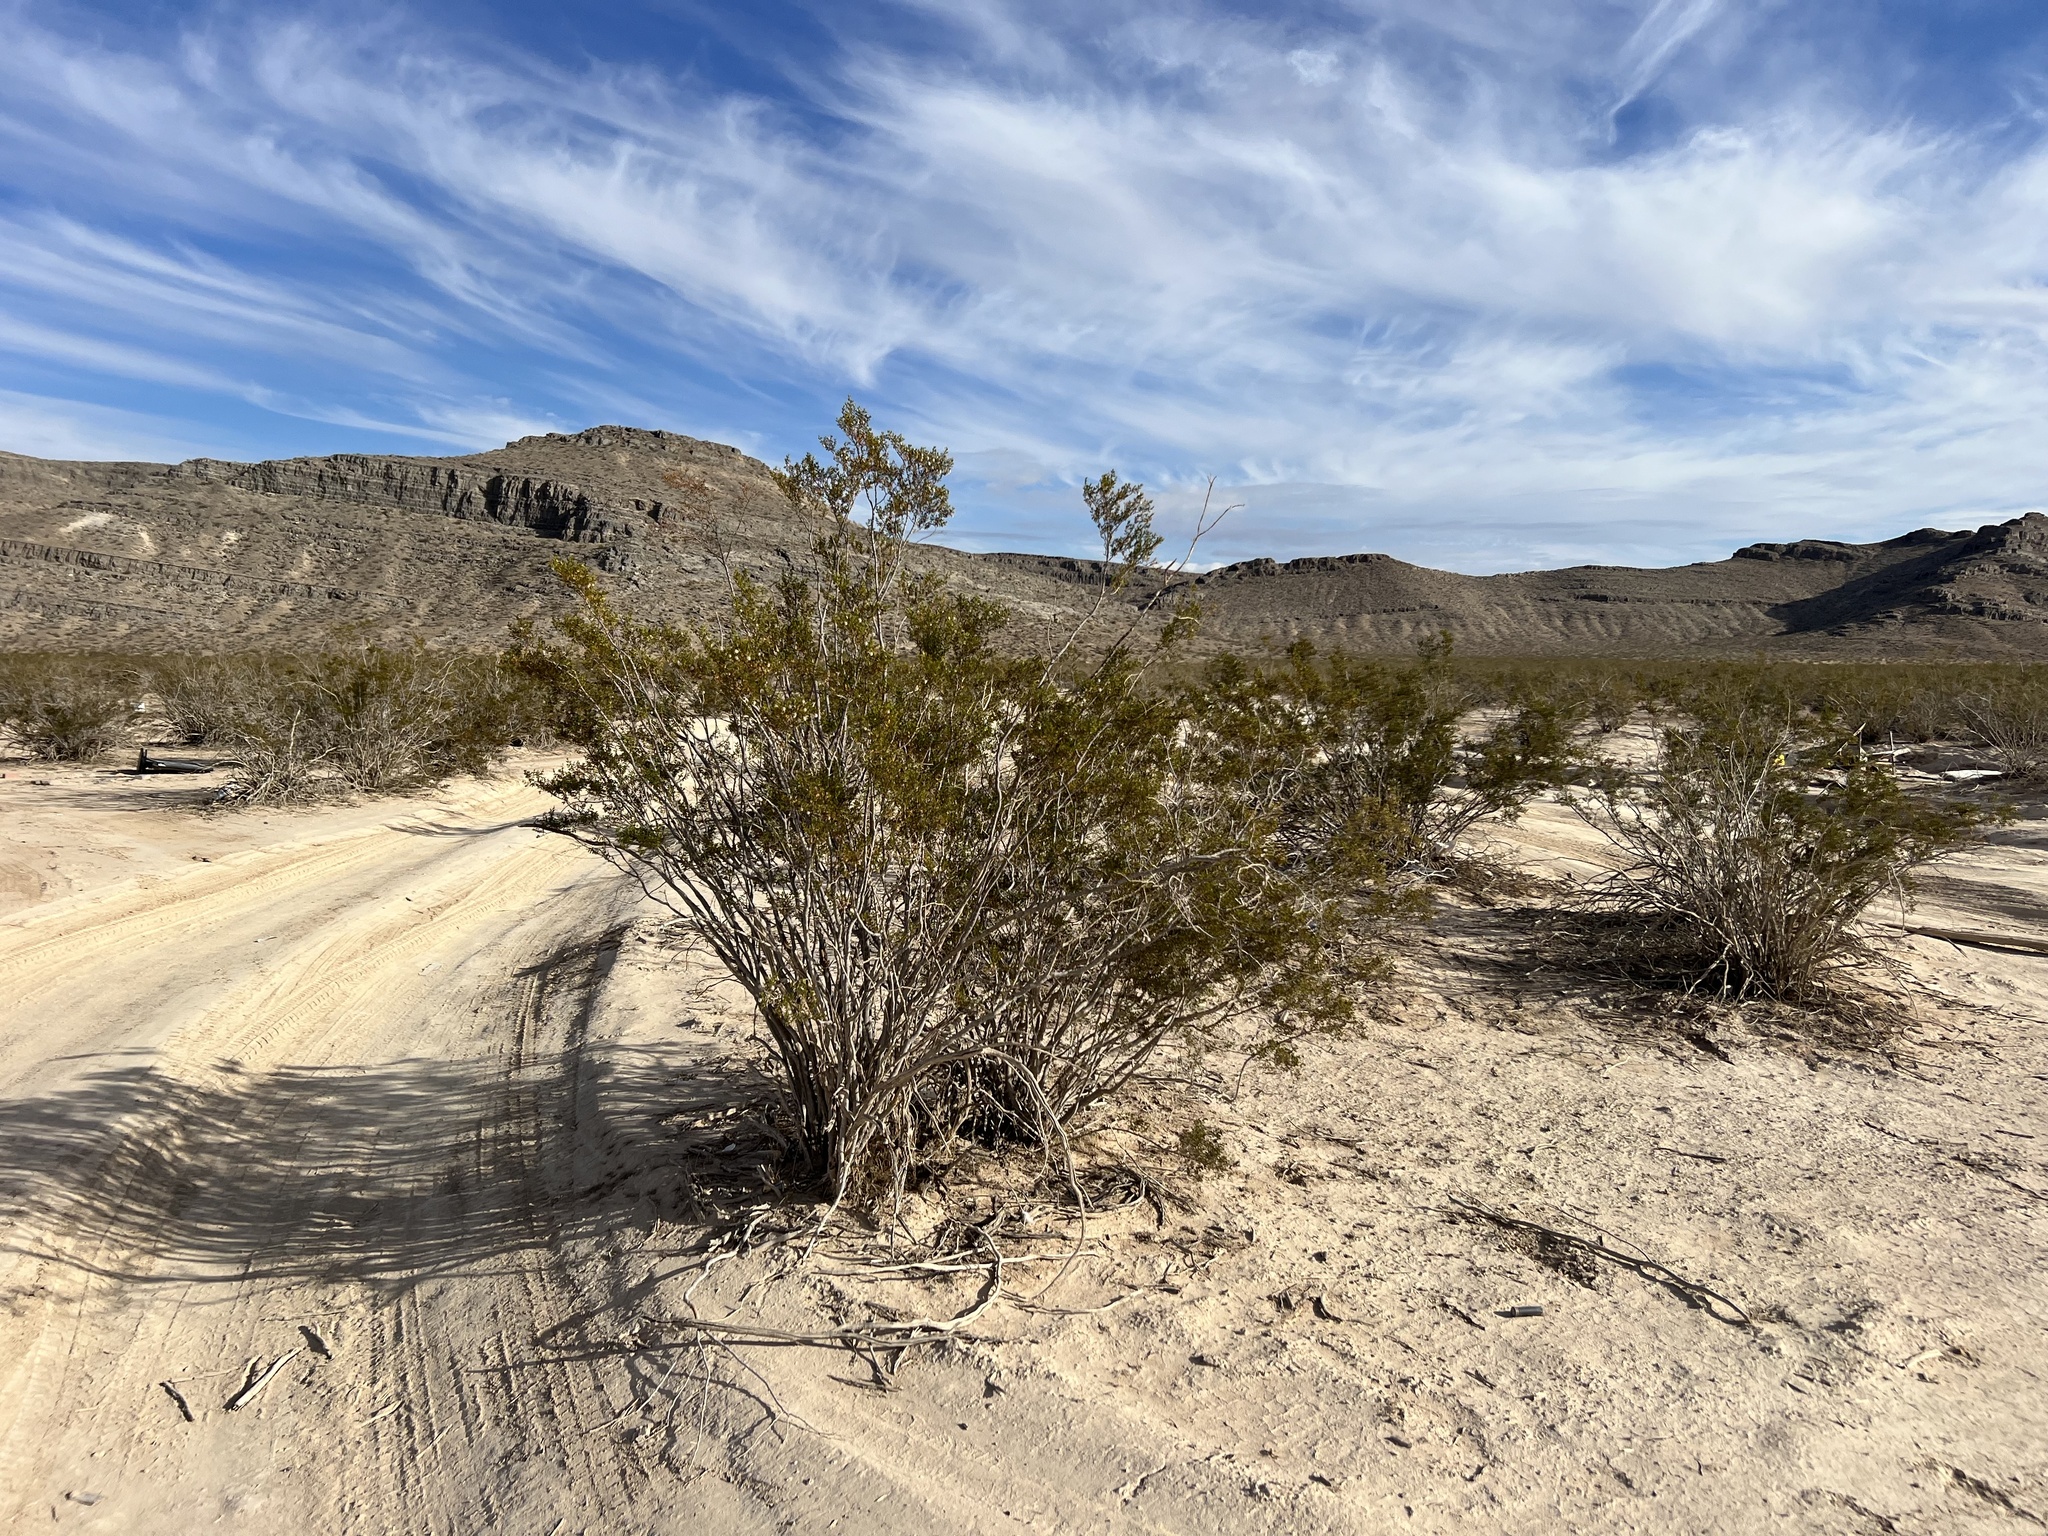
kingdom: Plantae
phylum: Tracheophyta
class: Magnoliopsida
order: Zygophyllales
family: Zygophyllaceae
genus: Larrea
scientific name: Larrea tridentata
